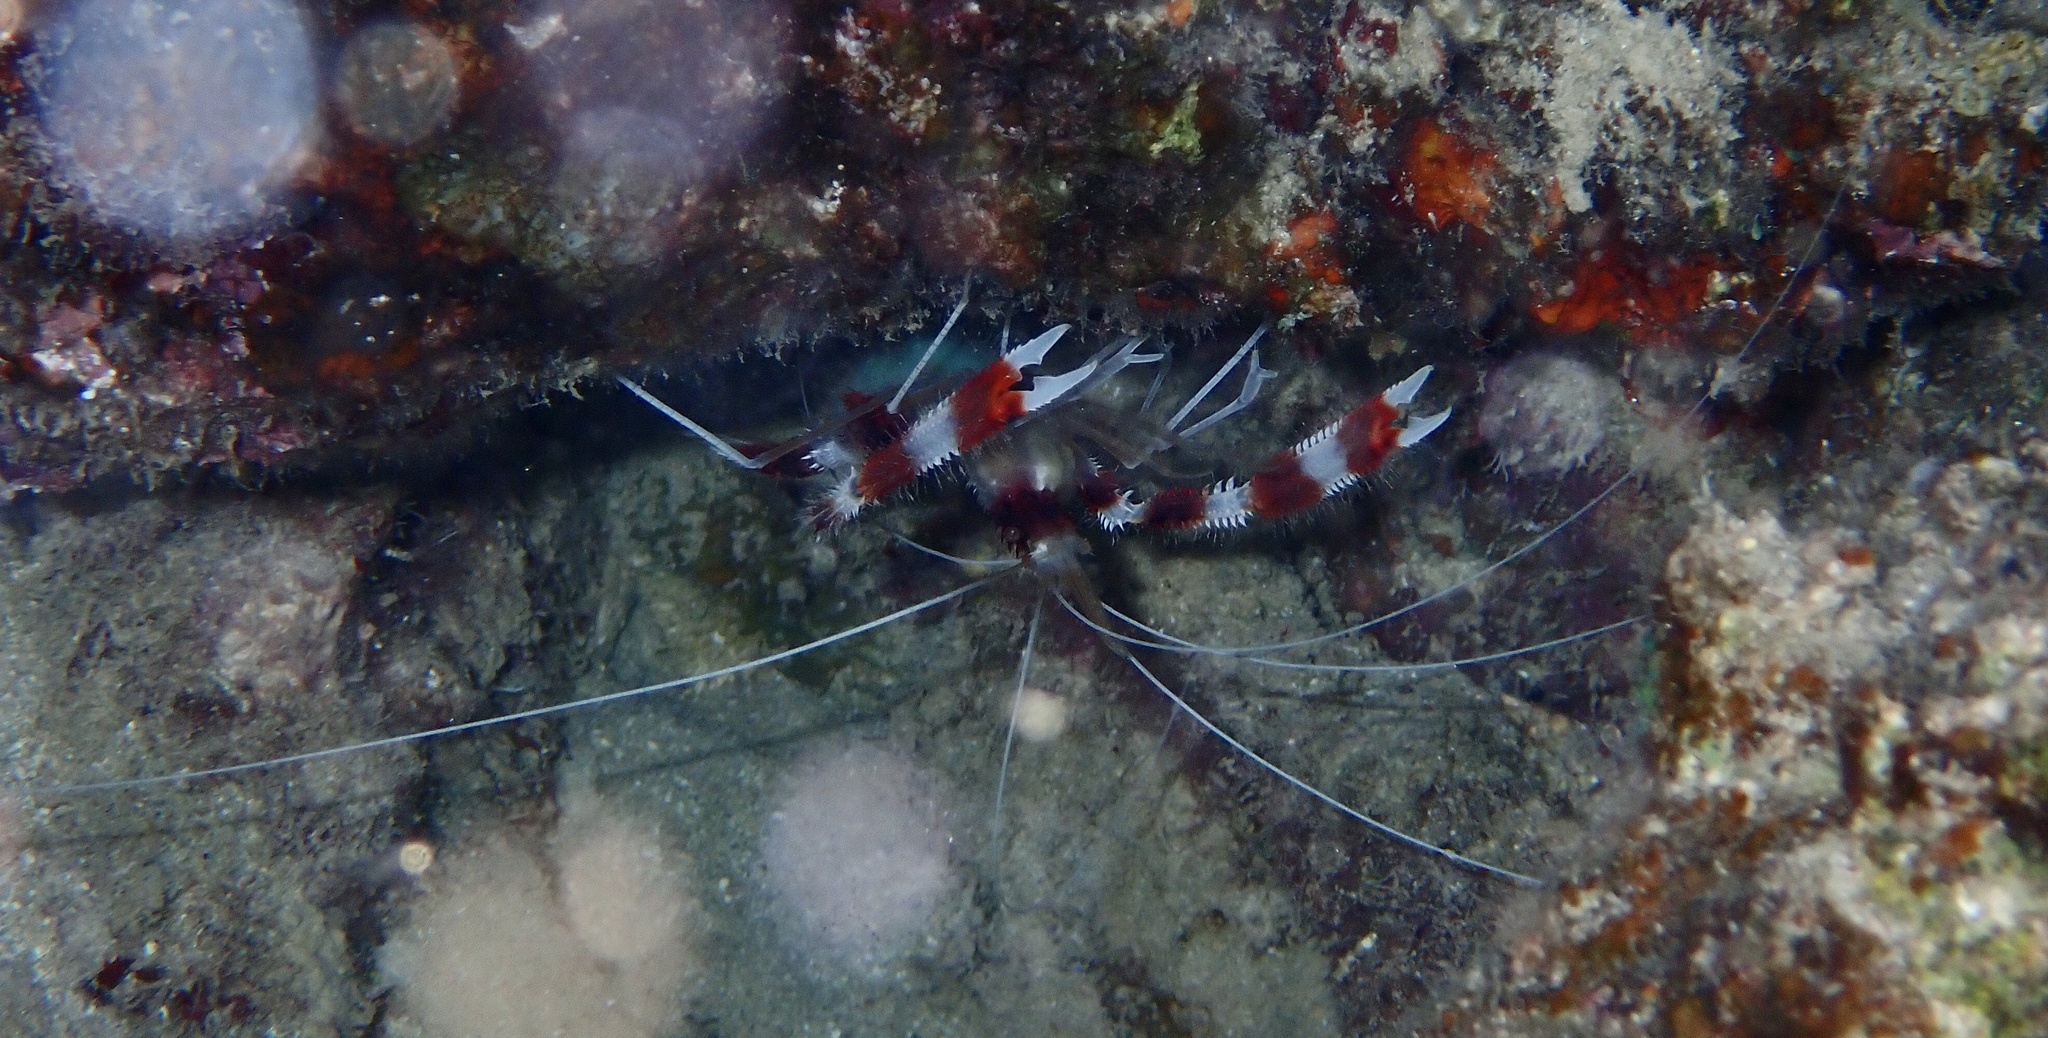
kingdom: Animalia
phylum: Arthropoda
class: Malacostraca
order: Decapoda
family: Stenopodidae
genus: Stenopus
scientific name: Stenopus hispidus
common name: Banded coral shrimp
